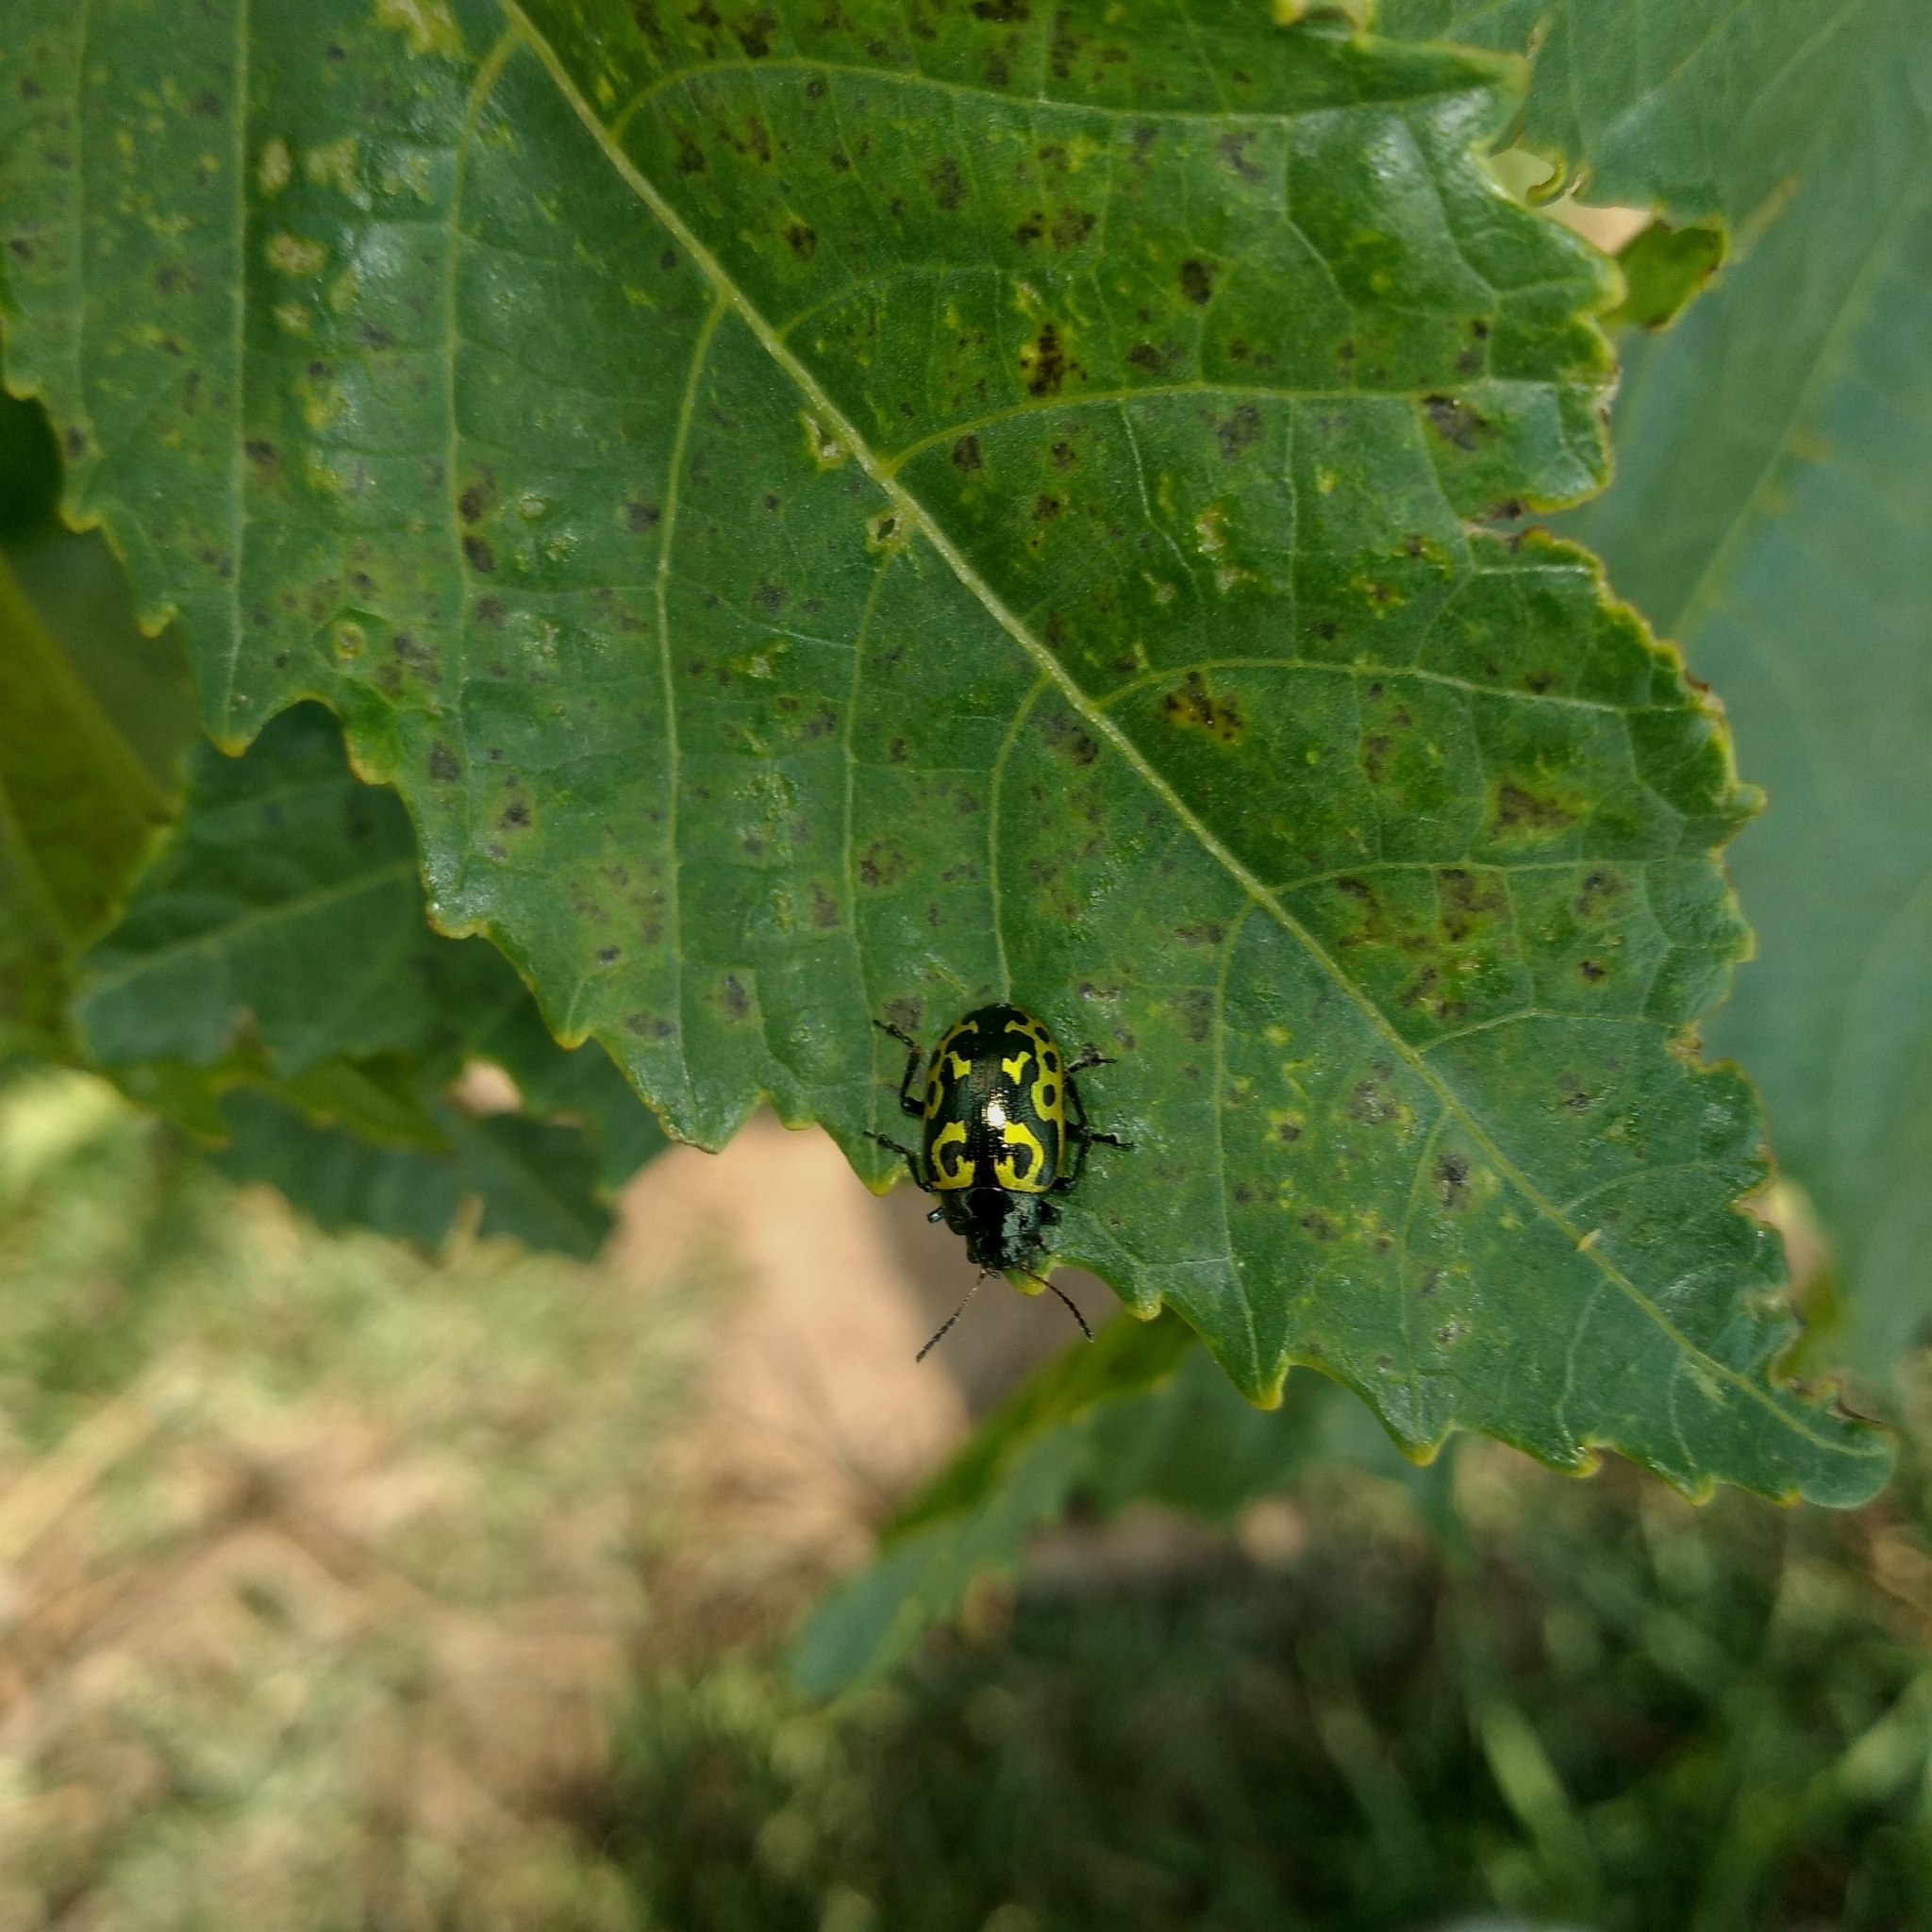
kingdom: Animalia
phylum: Arthropoda
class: Insecta
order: Coleoptera
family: Chrysomelidae
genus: Calligrapha
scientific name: Calligrapha
